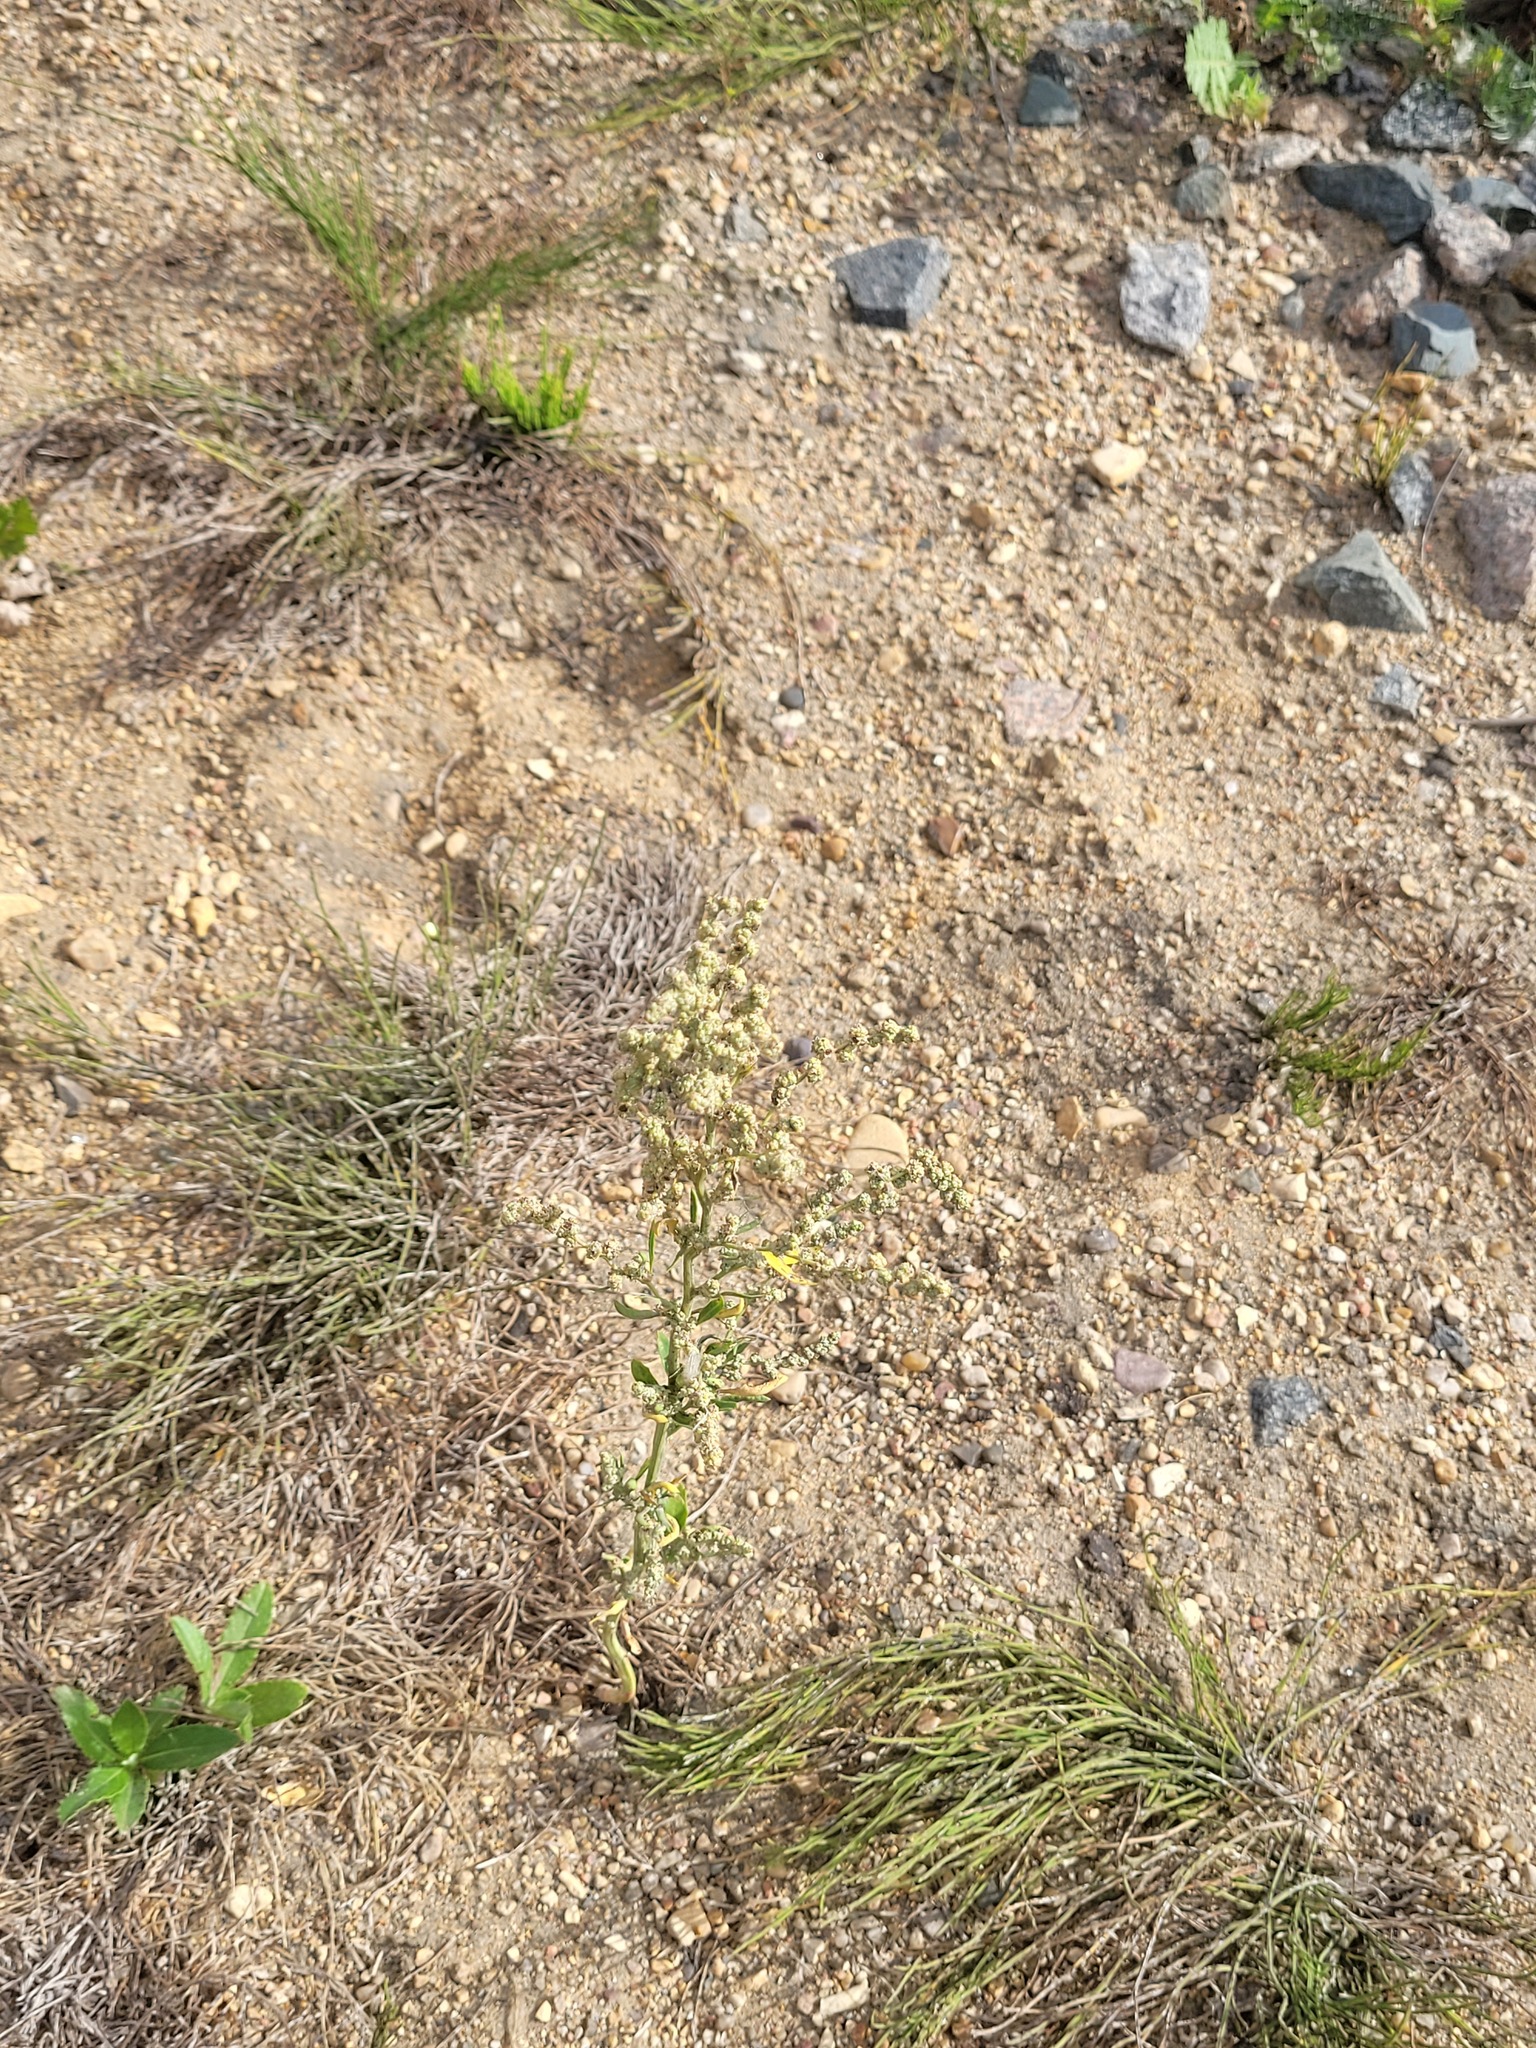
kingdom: Plantae
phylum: Tracheophyta
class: Magnoliopsida
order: Caryophyllales
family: Amaranthaceae
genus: Chenopodium
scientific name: Chenopodium album
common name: Fat-hen
